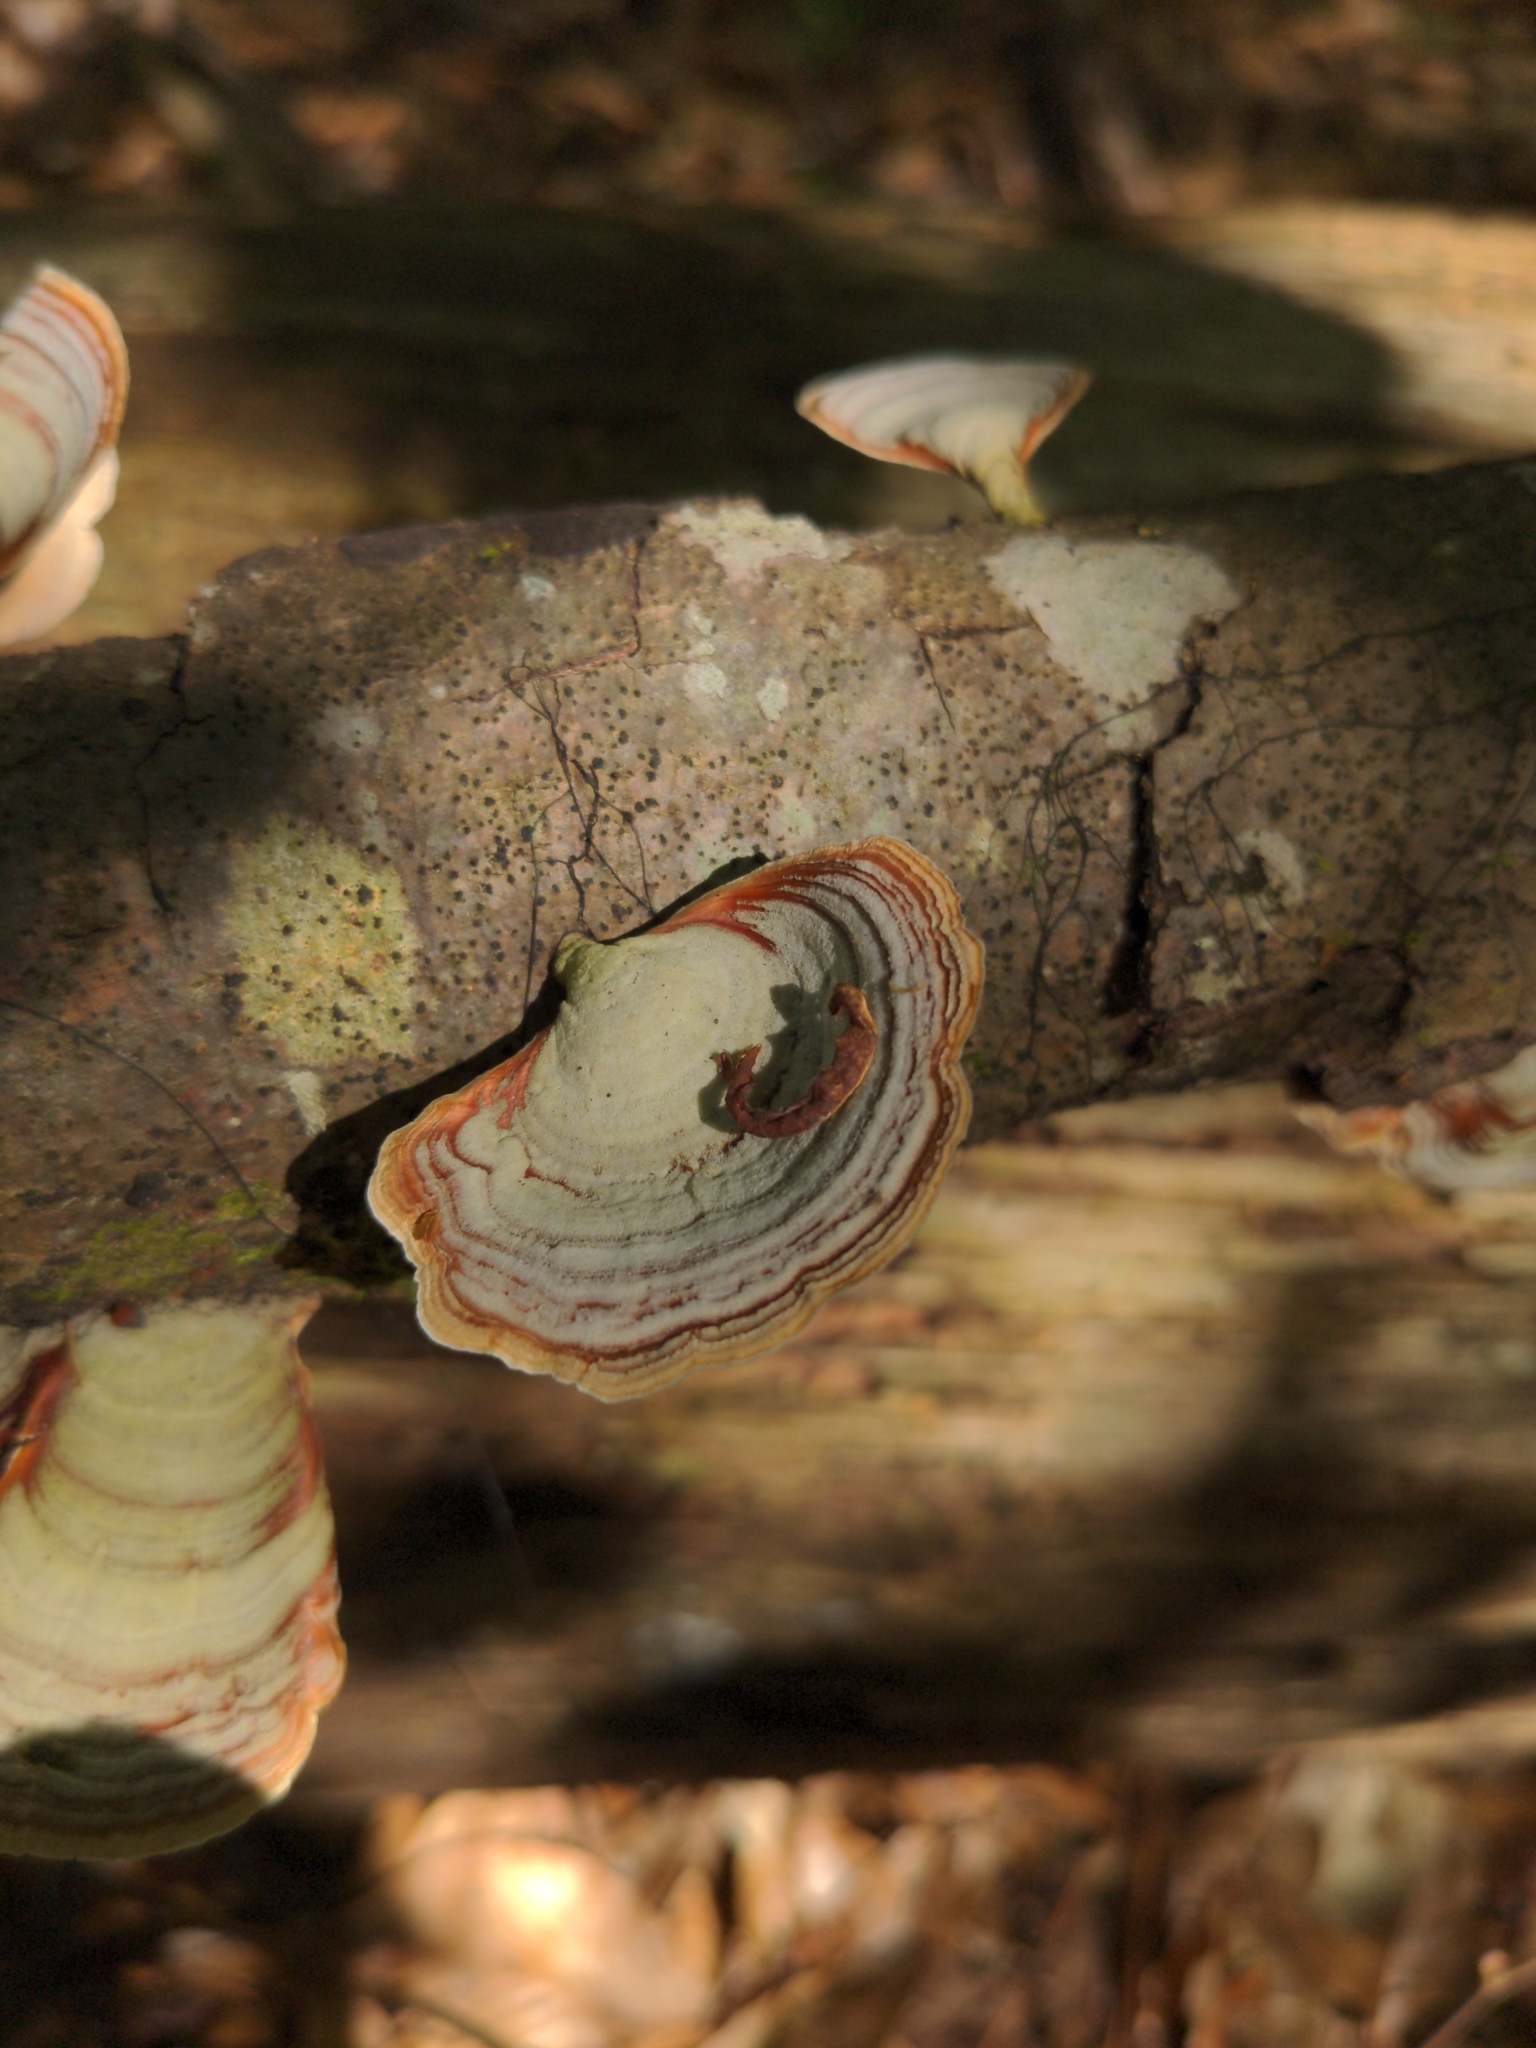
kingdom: Fungi
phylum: Basidiomycota
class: Agaricomycetes
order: Russulales
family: Stereaceae
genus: Stereum
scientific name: Stereum lobatum
